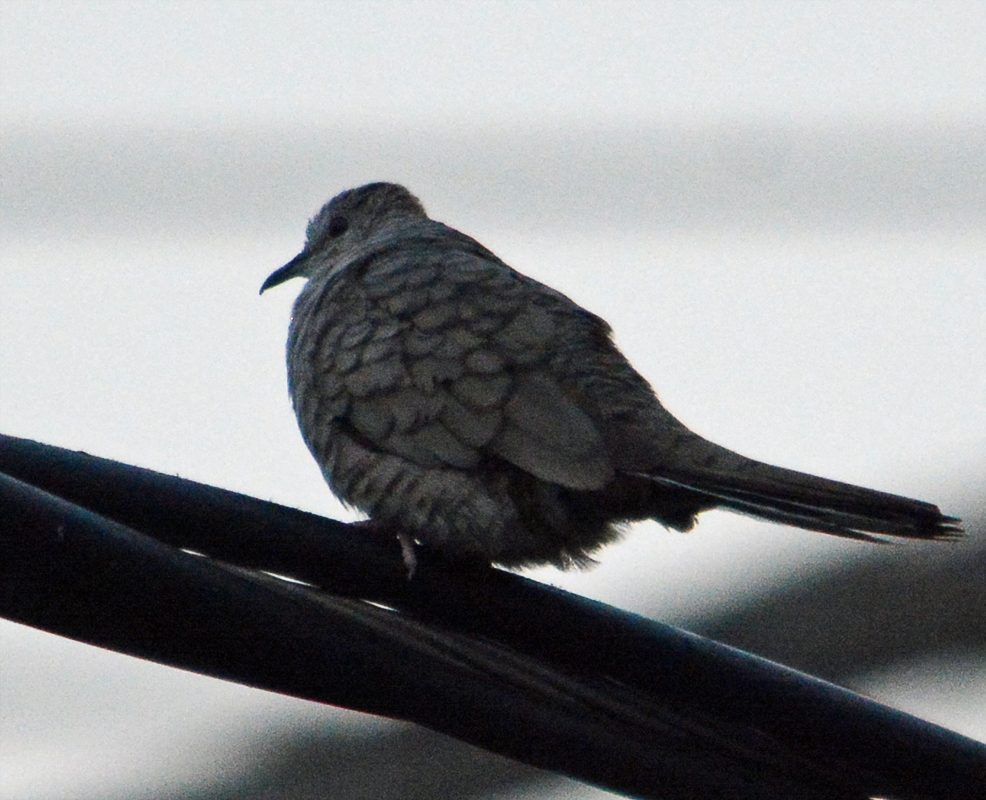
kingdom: Animalia
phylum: Chordata
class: Aves
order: Columbiformes
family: Columbidae
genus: Columbina
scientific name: Columbina inca
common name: Inca dove
